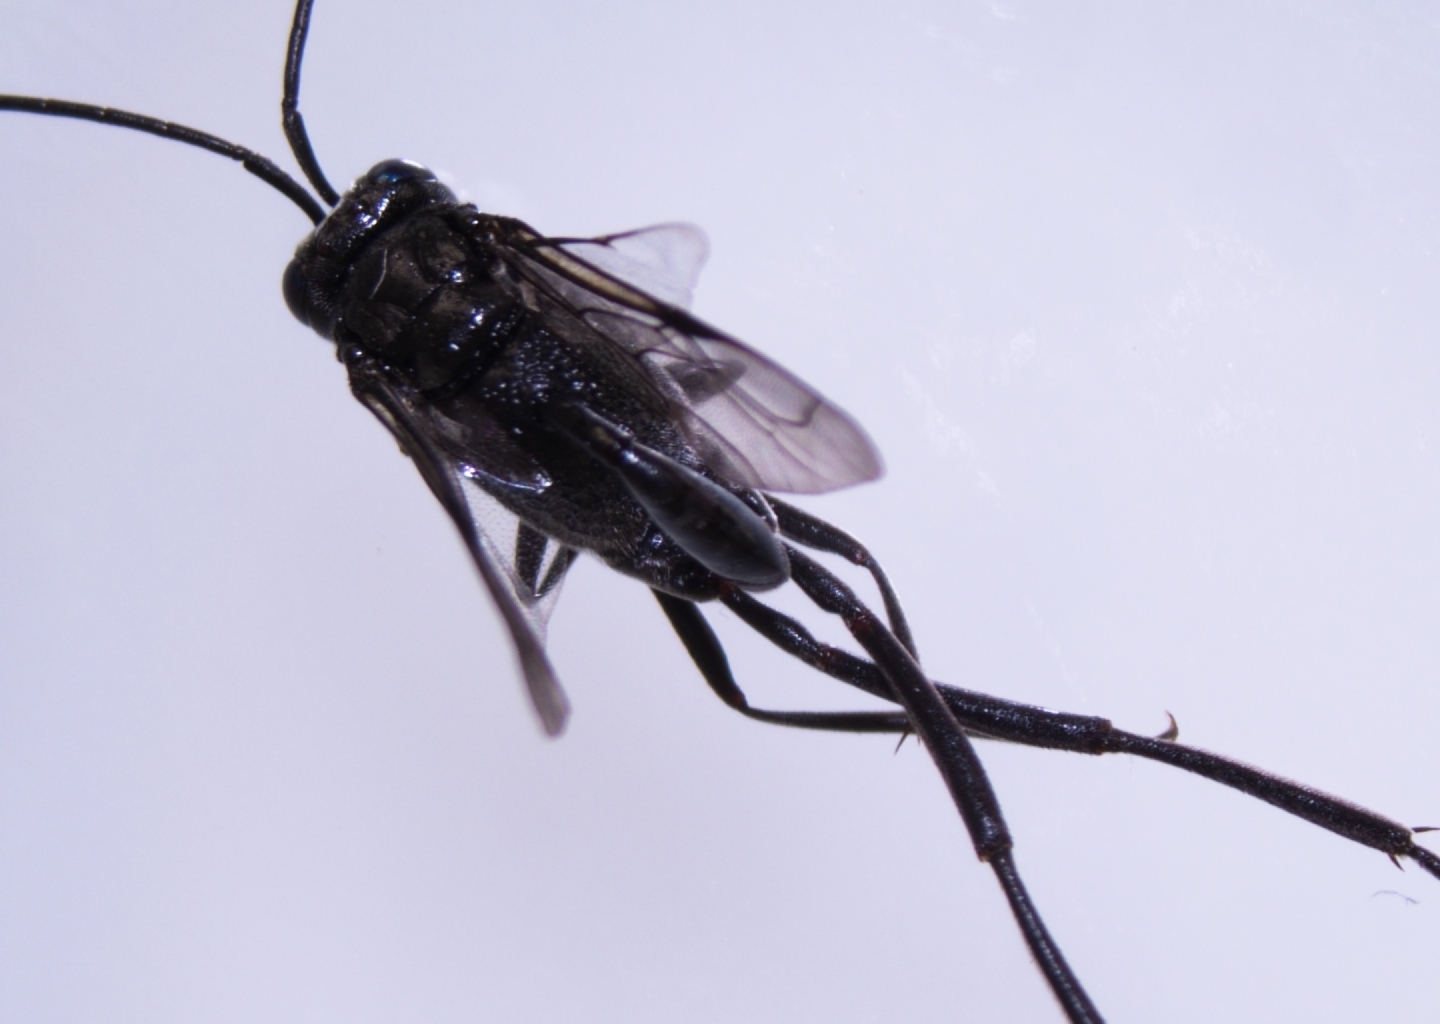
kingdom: Animalia
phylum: Arthropoda
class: Insecta
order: Hymenoptera
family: Evaniidae
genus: Evania
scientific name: Evania appendigaster
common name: Ensign wasp
